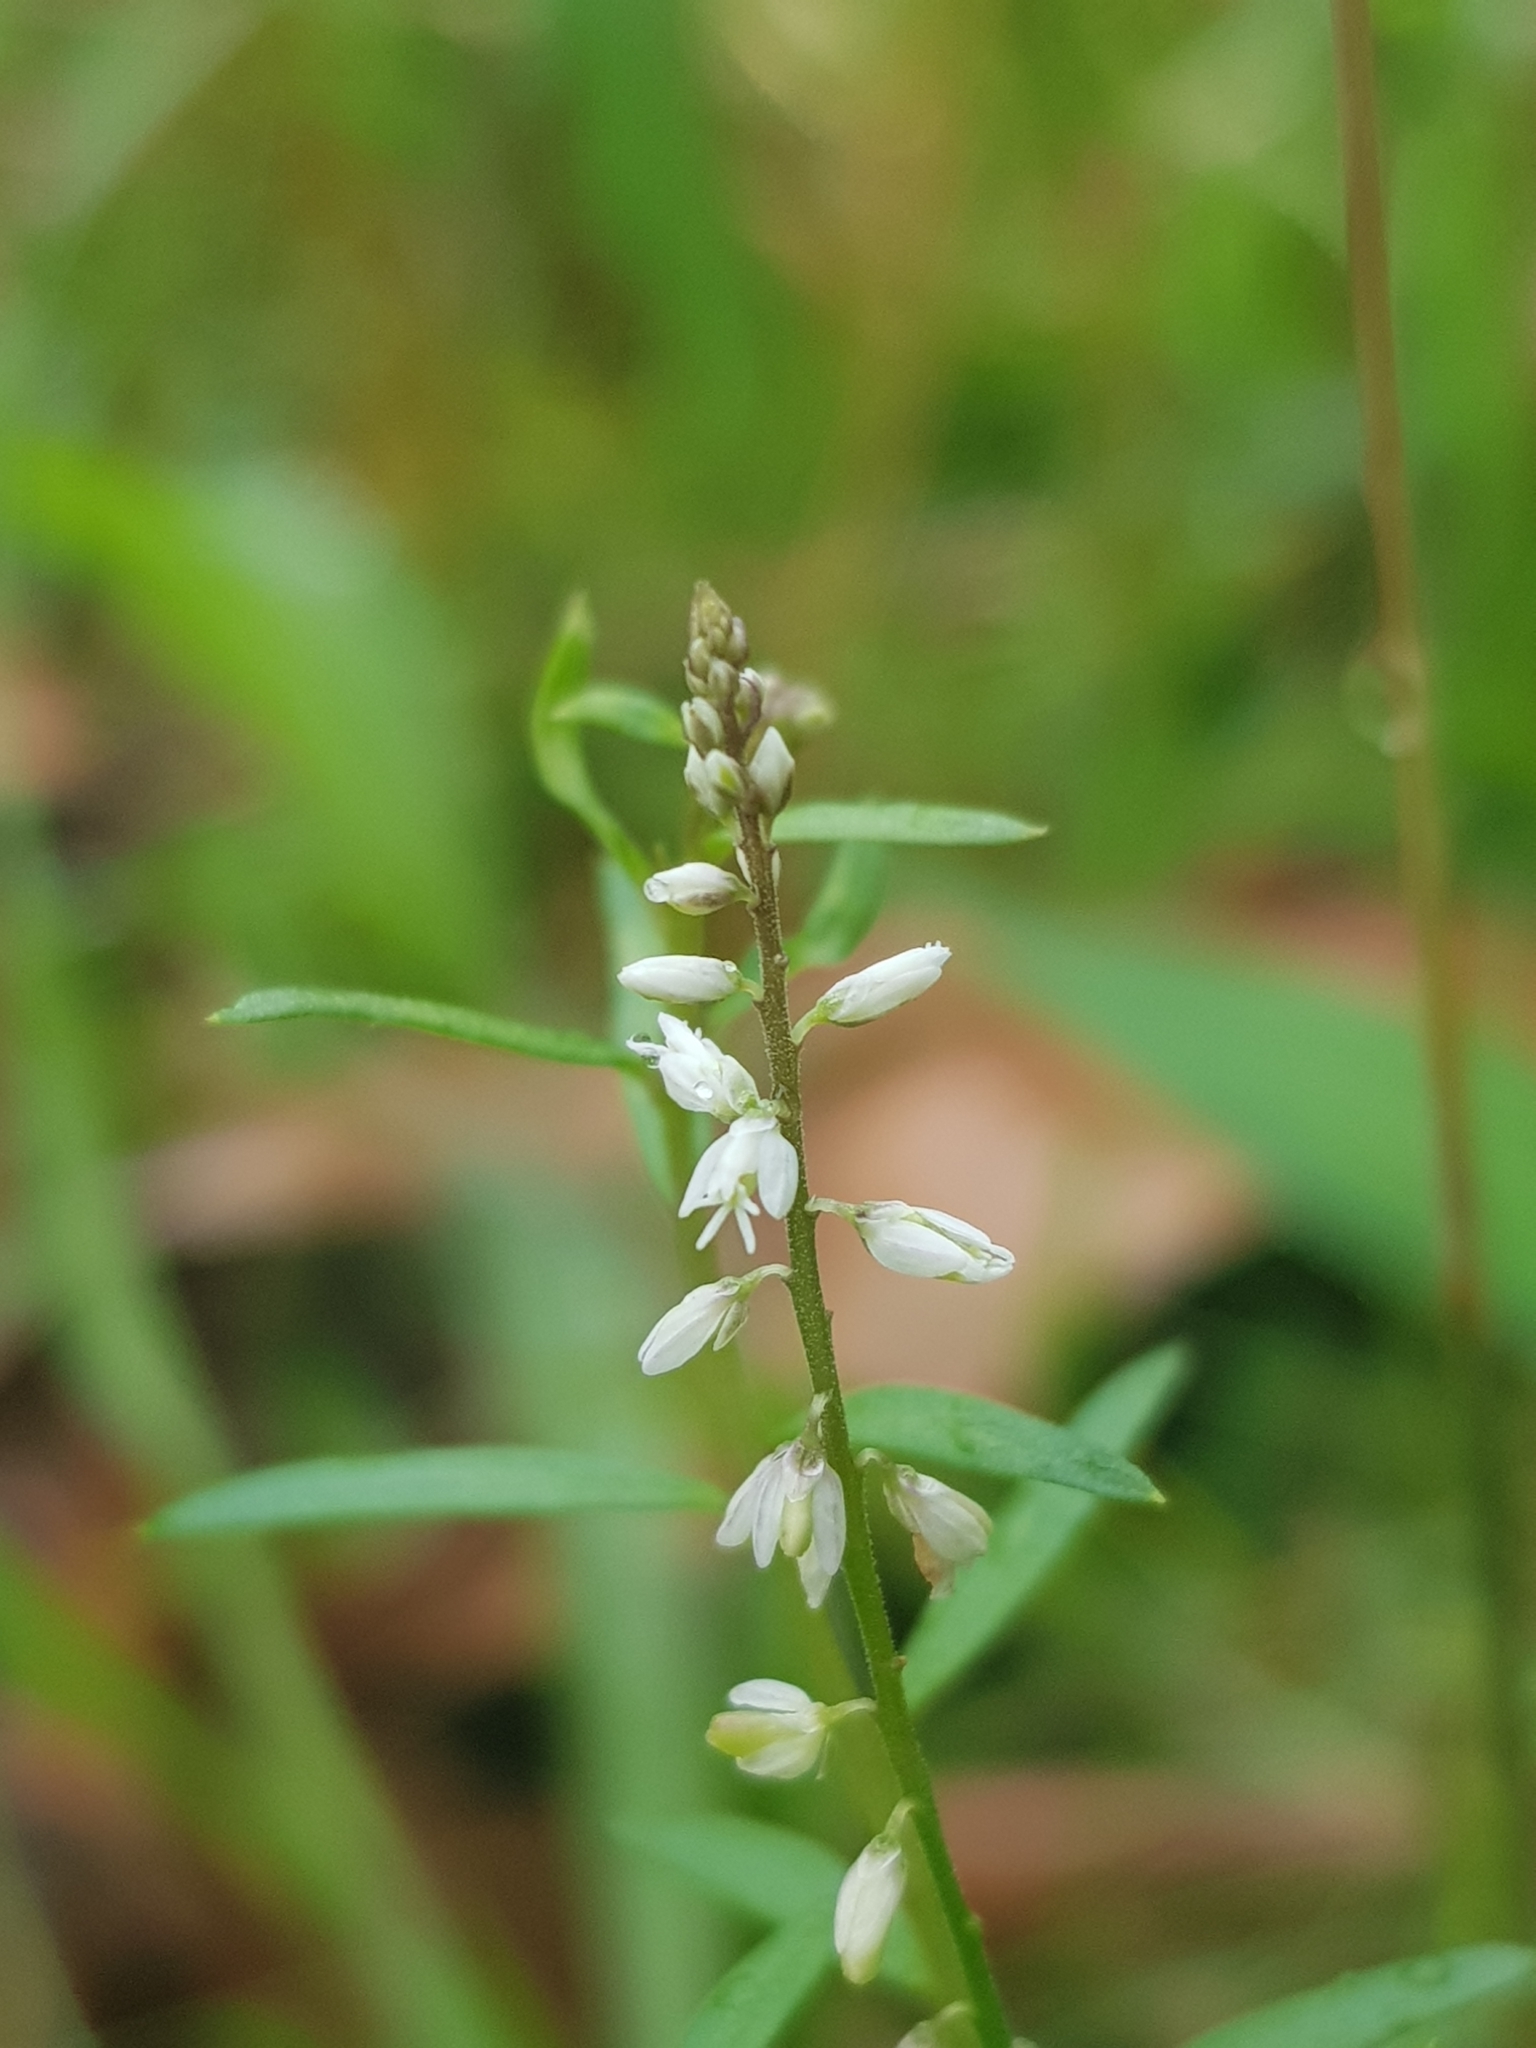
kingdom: Plantae
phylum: Tracheophyta
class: Magnoliopsida
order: Fabales
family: Polygalaceae
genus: Polygala
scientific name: Polygala paniculata
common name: Orosne
